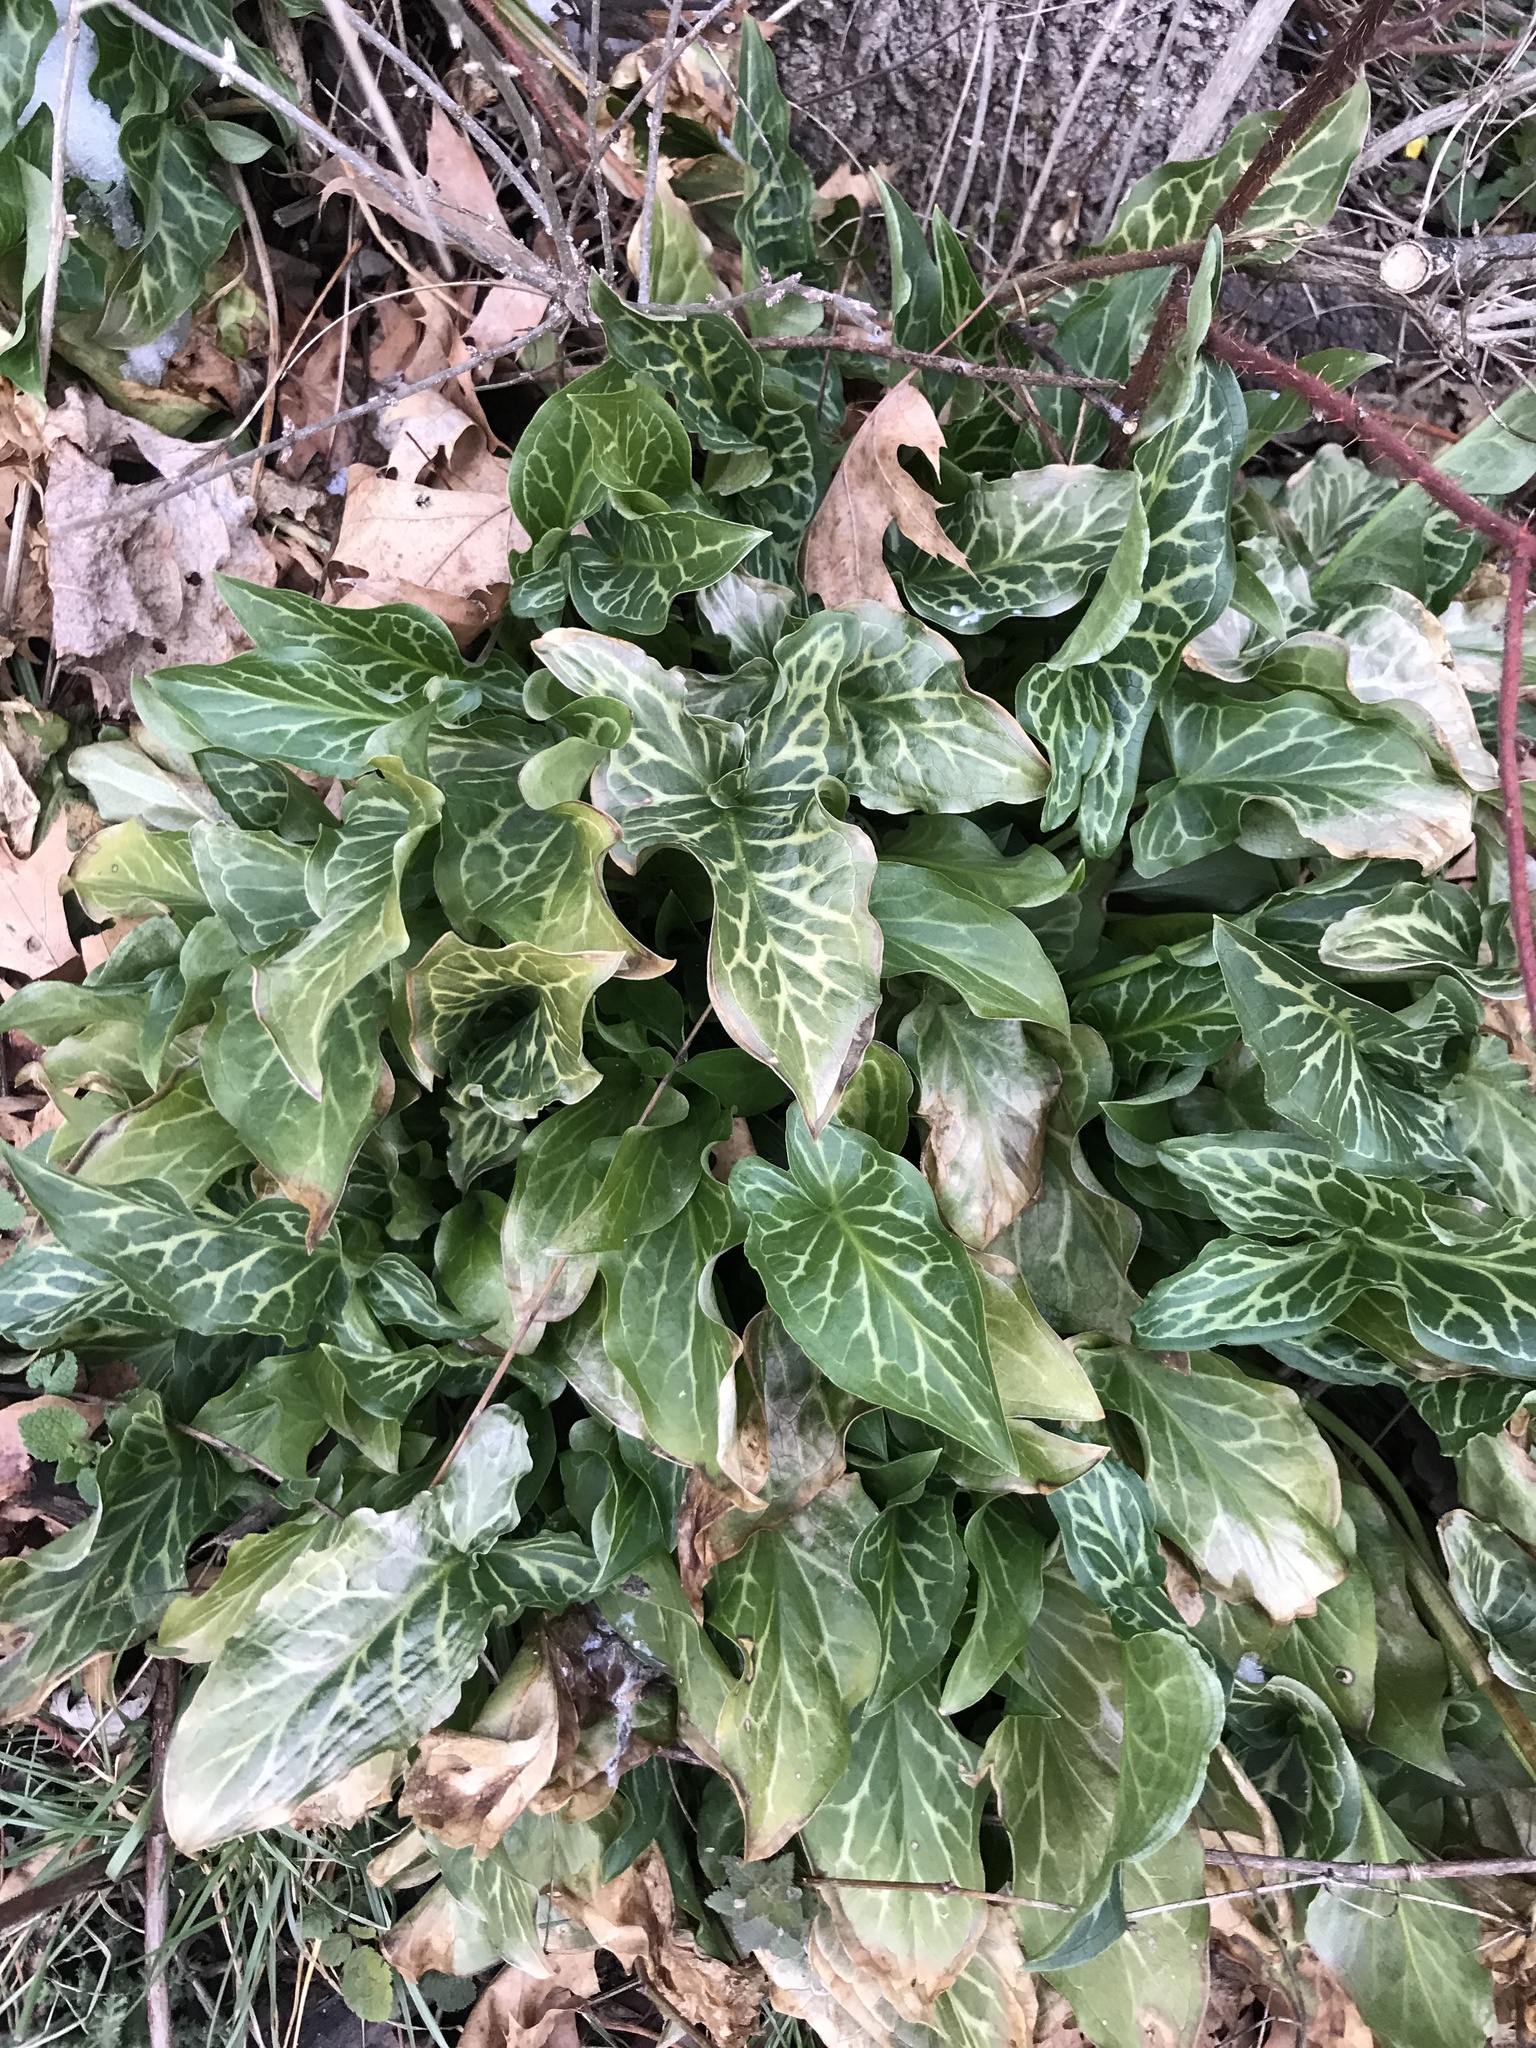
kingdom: Plantae
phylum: Tracheophyta
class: Liliopsida
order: Alismatales
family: Araceae
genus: Arum
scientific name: Arum italicum
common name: Italian lords-and-ladies
